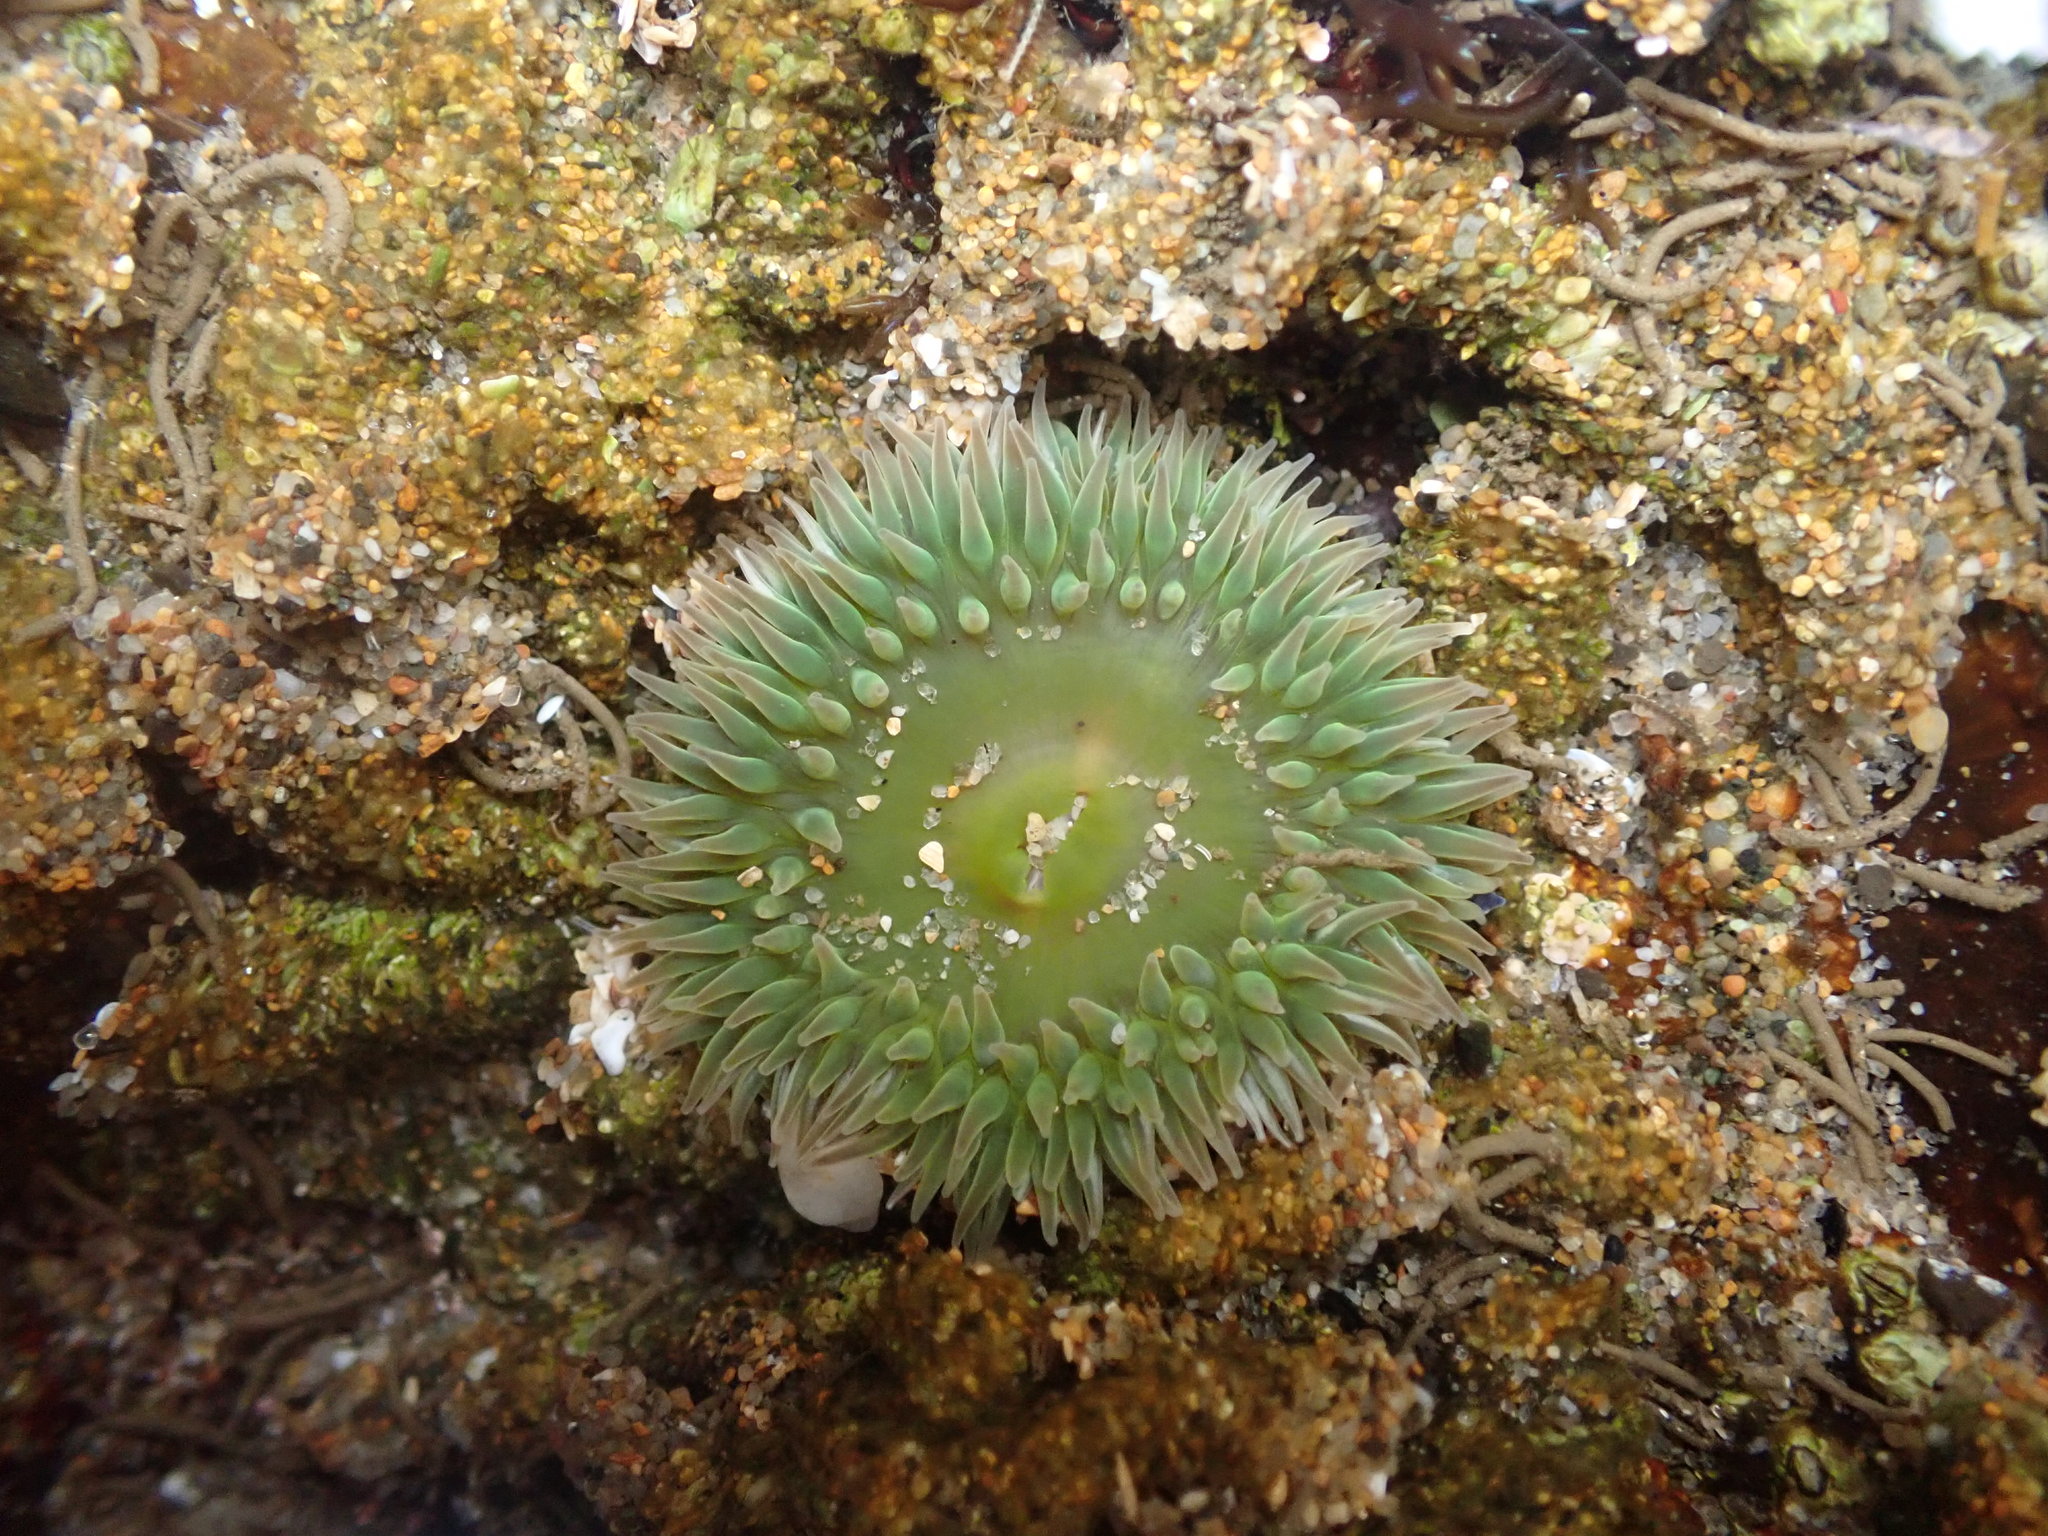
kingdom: Animalia
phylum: Cnidaria
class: Anthozoa
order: Actiniaria
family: Actiniidae
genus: Anthopleura
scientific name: Anthopleura xanthogrammica
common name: Giant green anemone
